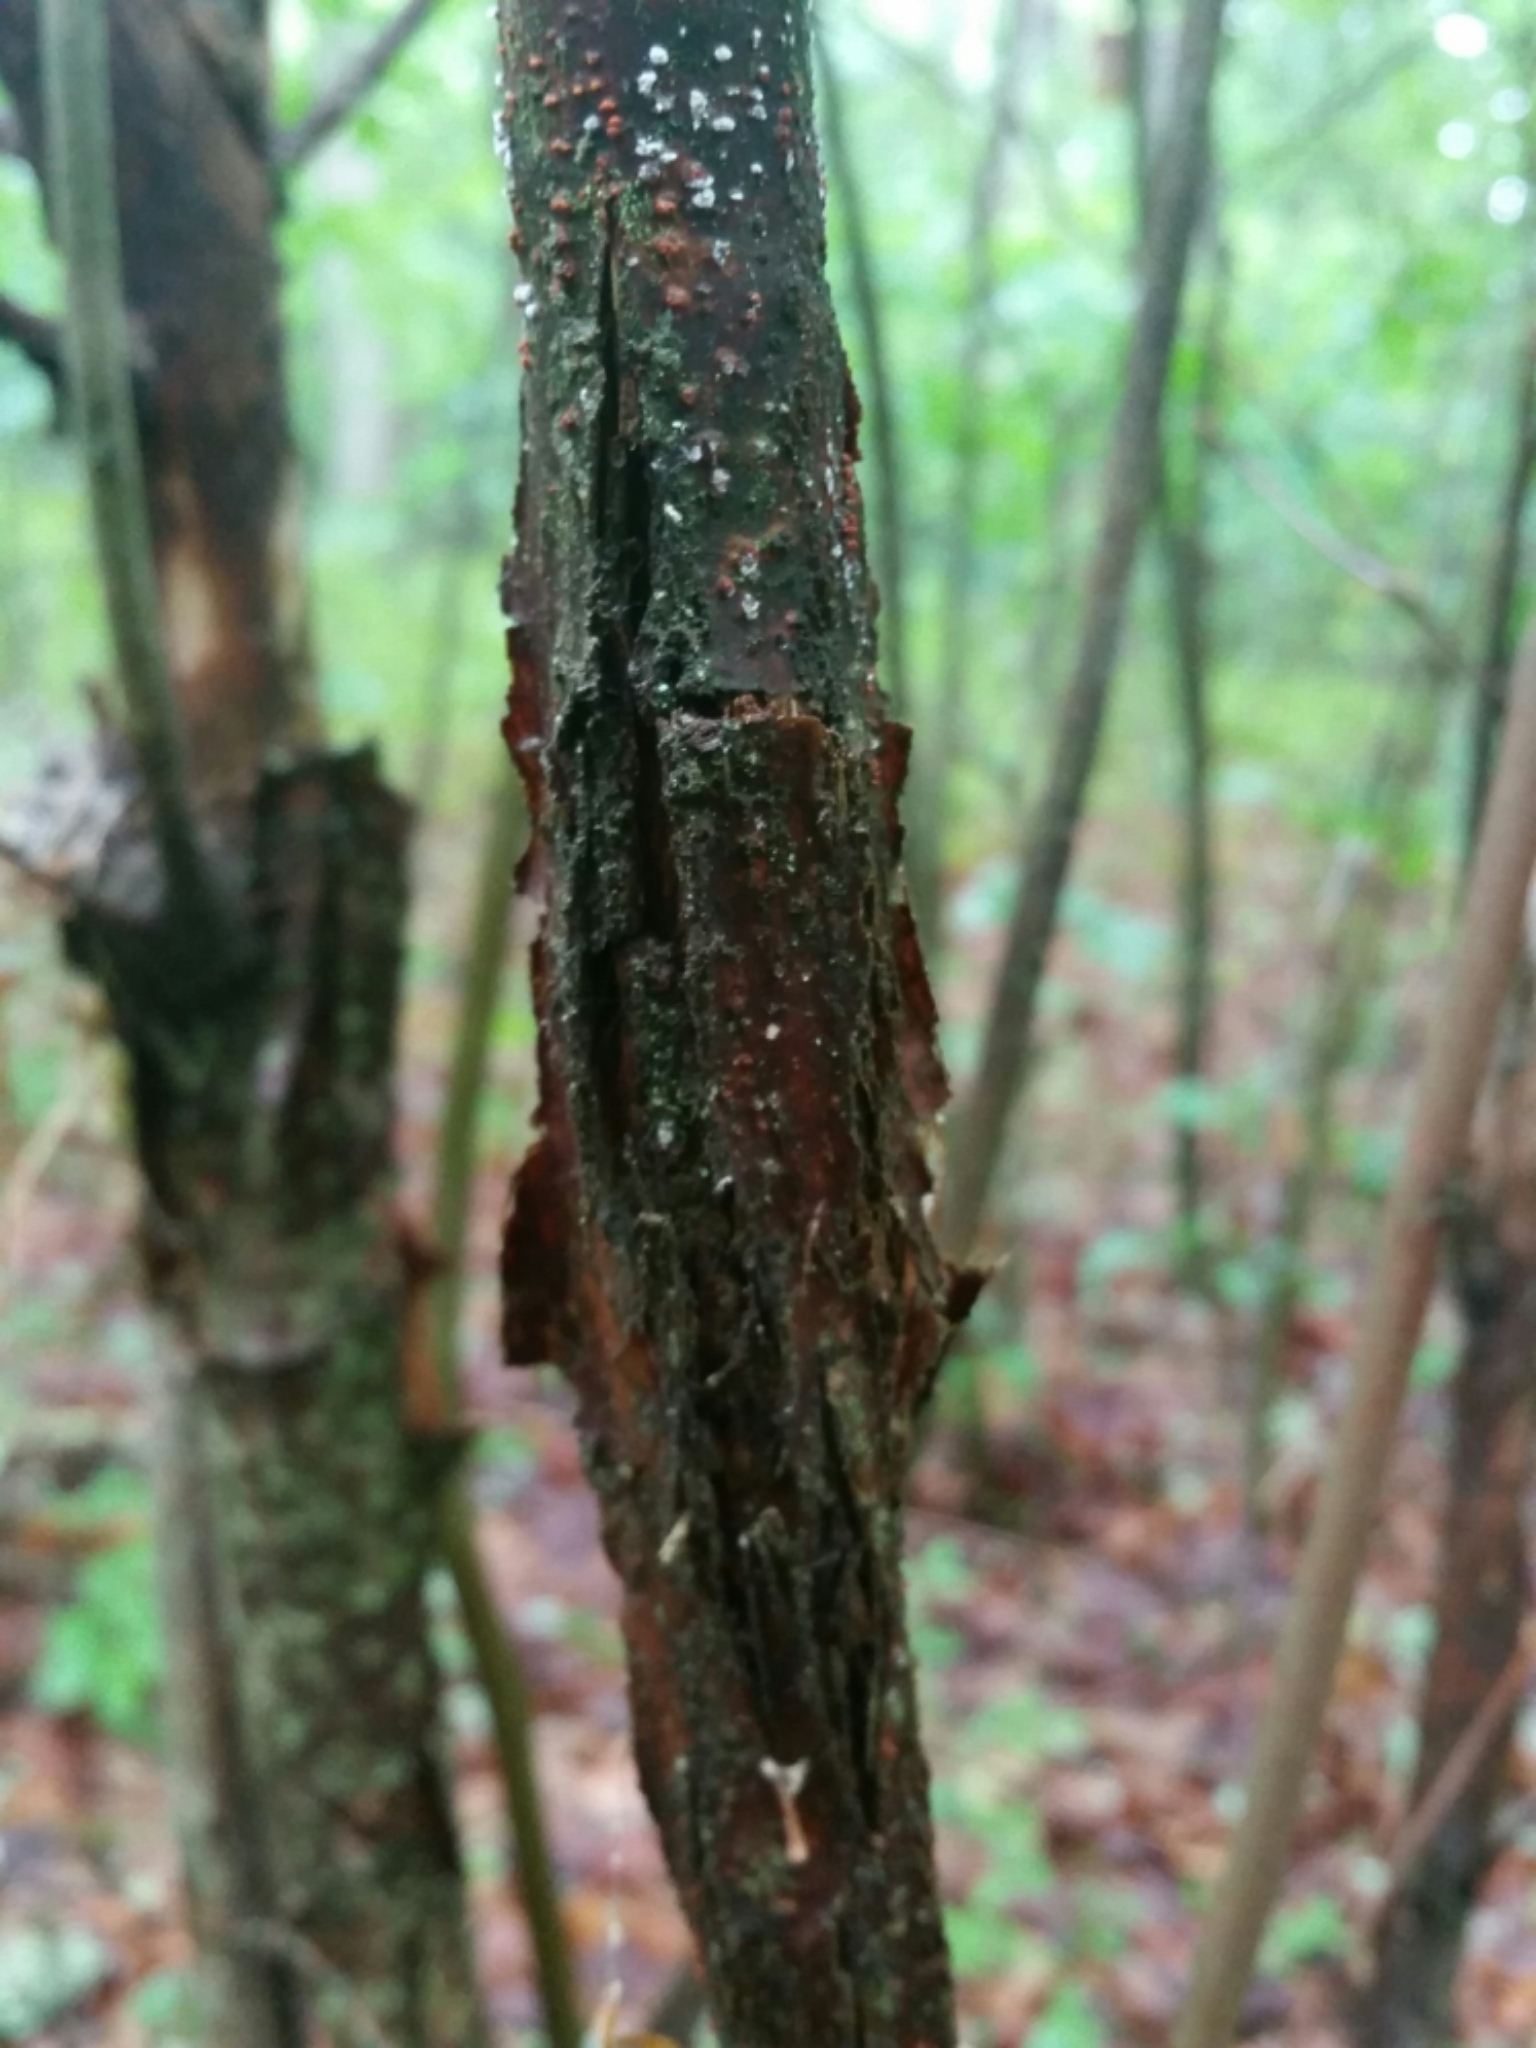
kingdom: Plantae
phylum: Tracheophyta
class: Magnoliopsida
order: Fagales
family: Fagaceae
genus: Castanea
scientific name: Castanea dentata
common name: American chestnut
